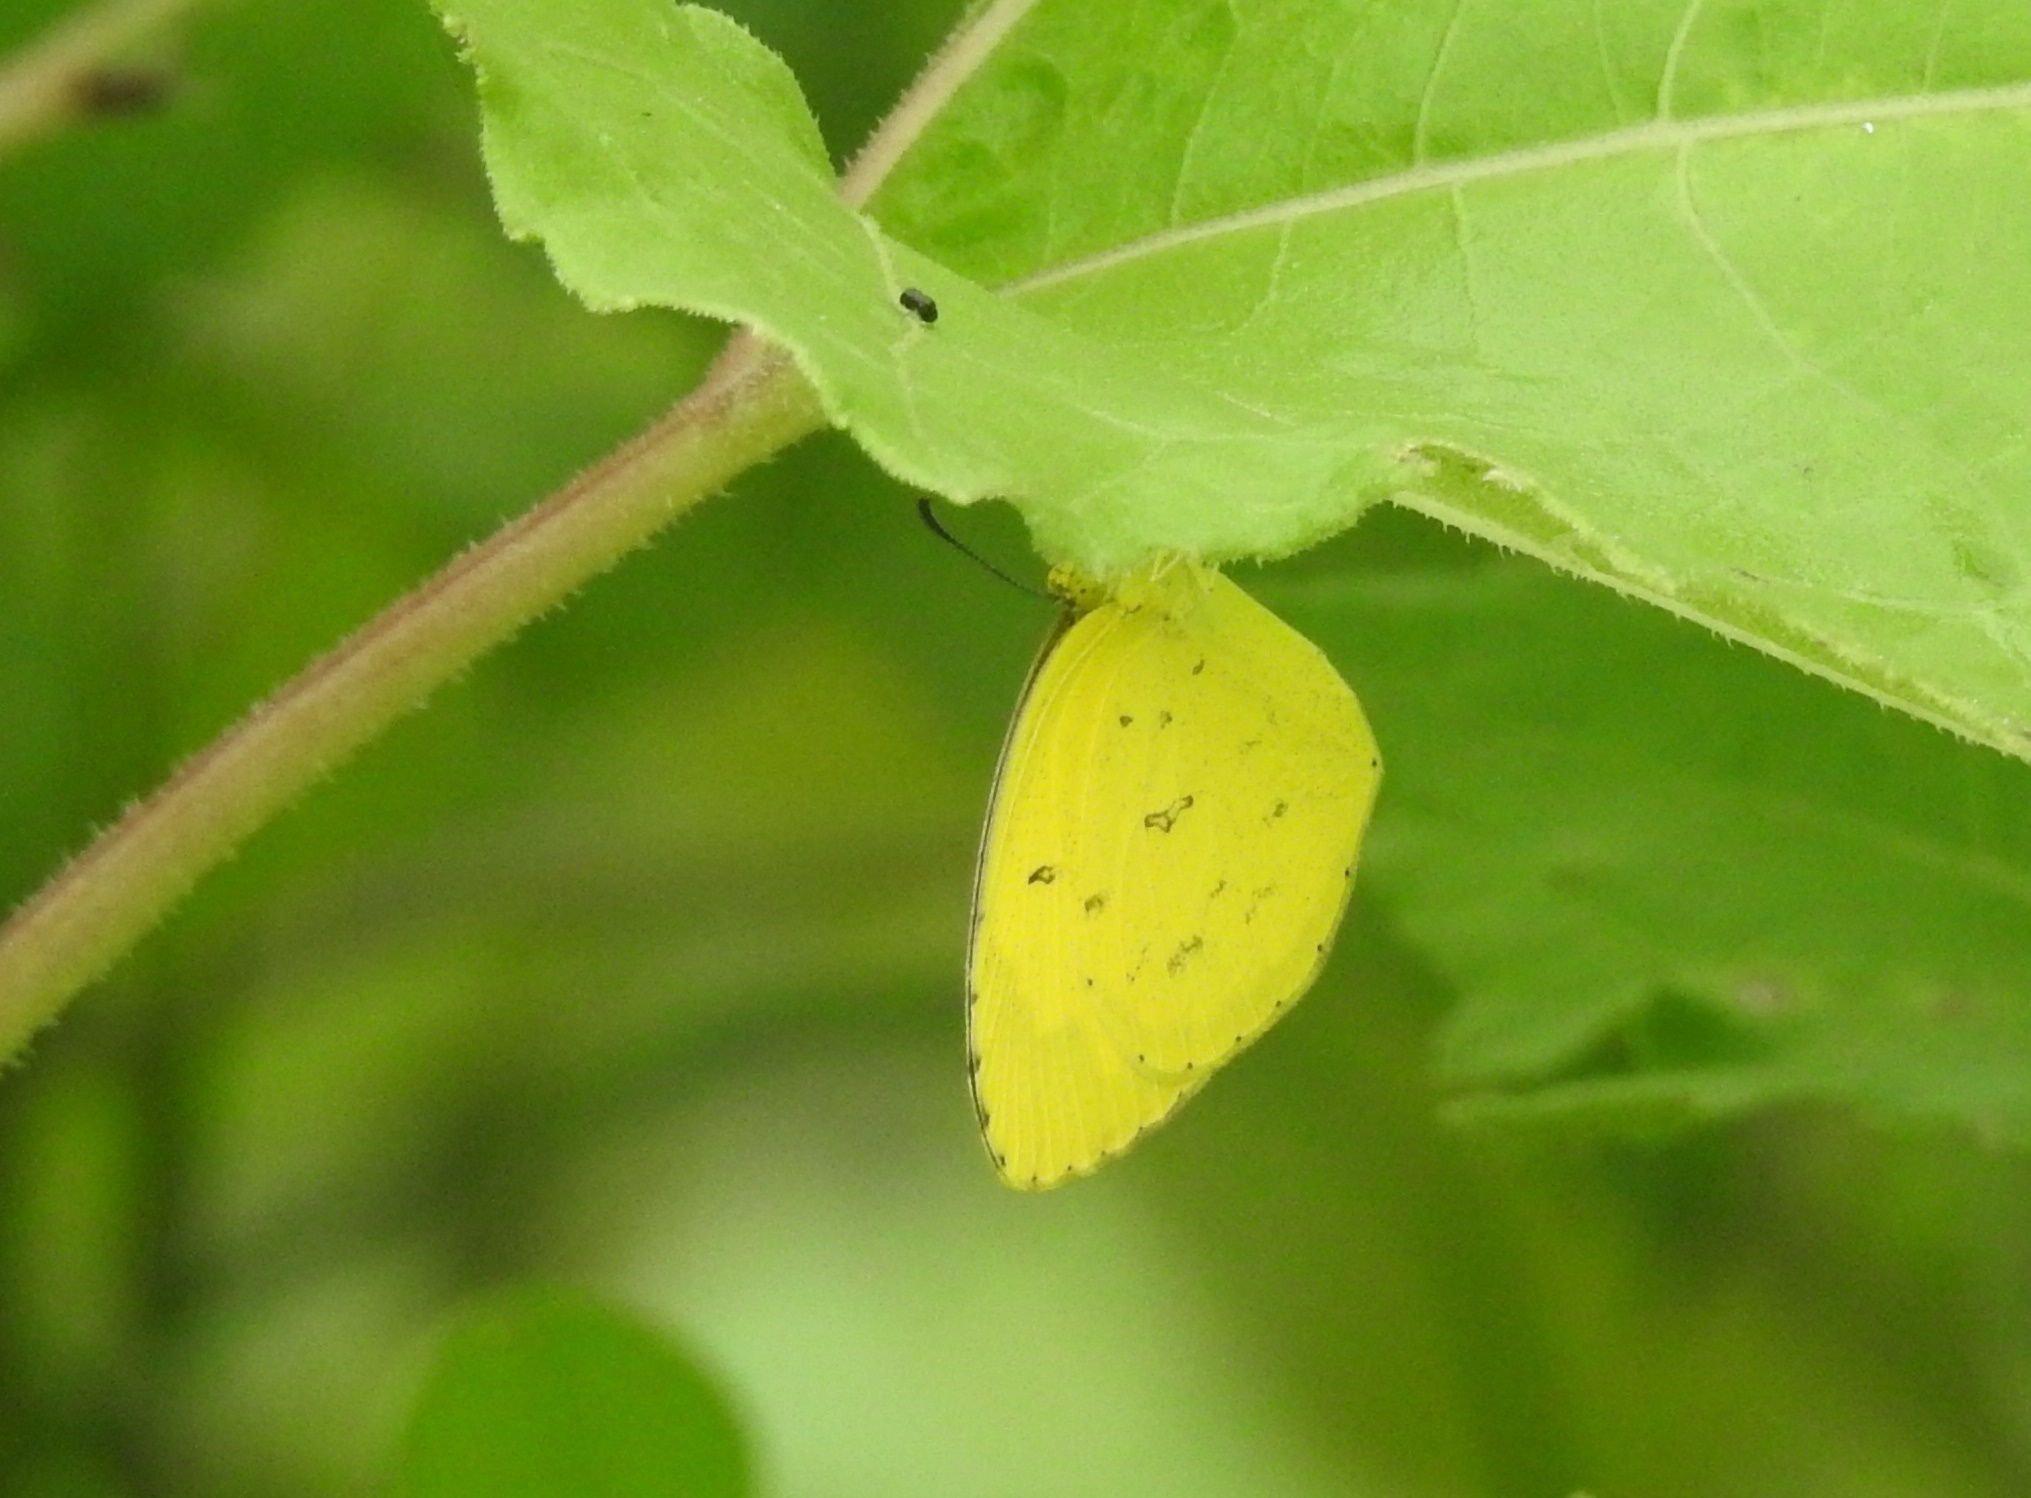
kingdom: Animalia
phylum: Arthropoda
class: Insecta
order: Lepidoptera
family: Pieridae
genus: Eurema
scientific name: Eurema hecabe
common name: Pale grass yellow
